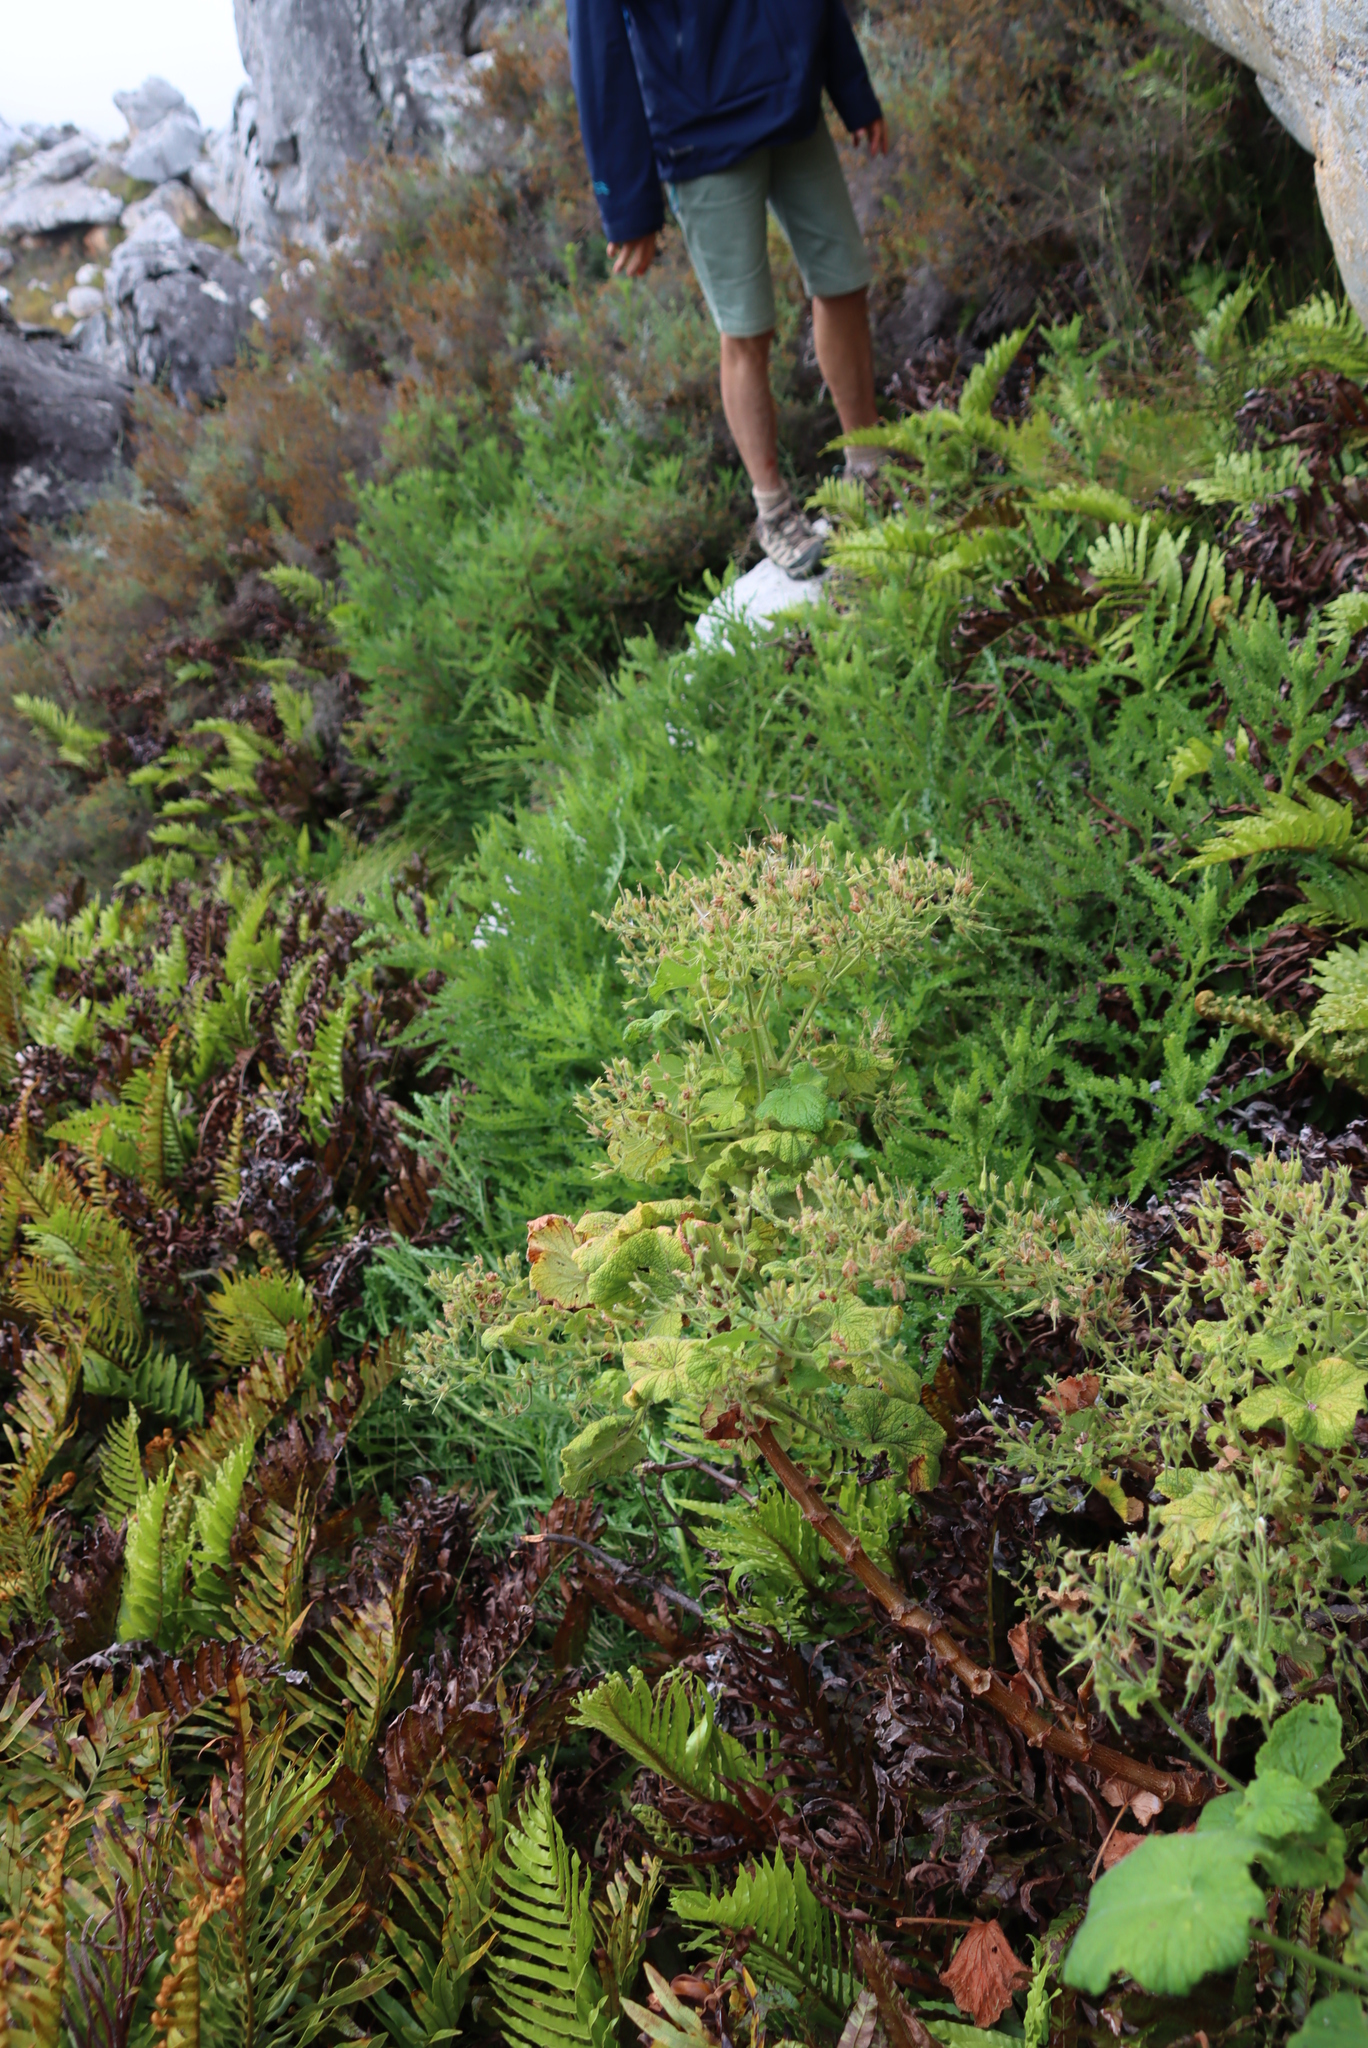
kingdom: Plantae
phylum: Tracheophyta
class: Magnoliopsida
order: Geraniales
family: Geraniaceae
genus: Pelargonium
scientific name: Pelargonium papilionaceum
